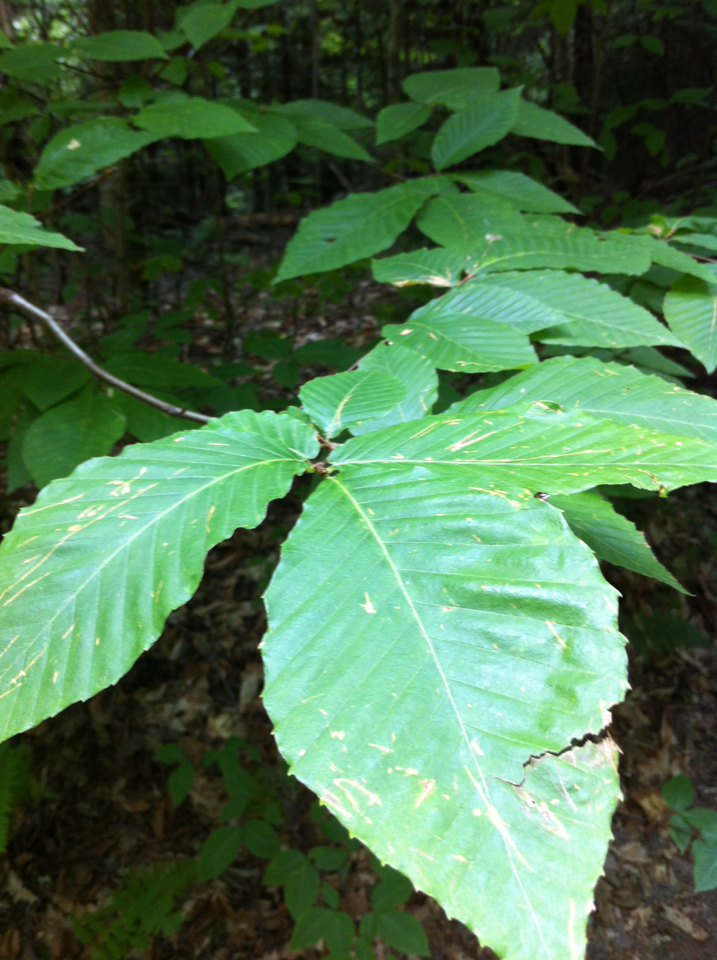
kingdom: Plantae
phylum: Tracheophyta
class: Magnoliopsida
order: Fagales
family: Fagaceae
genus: Fagus
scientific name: Fagus grandifolia
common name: American beech
